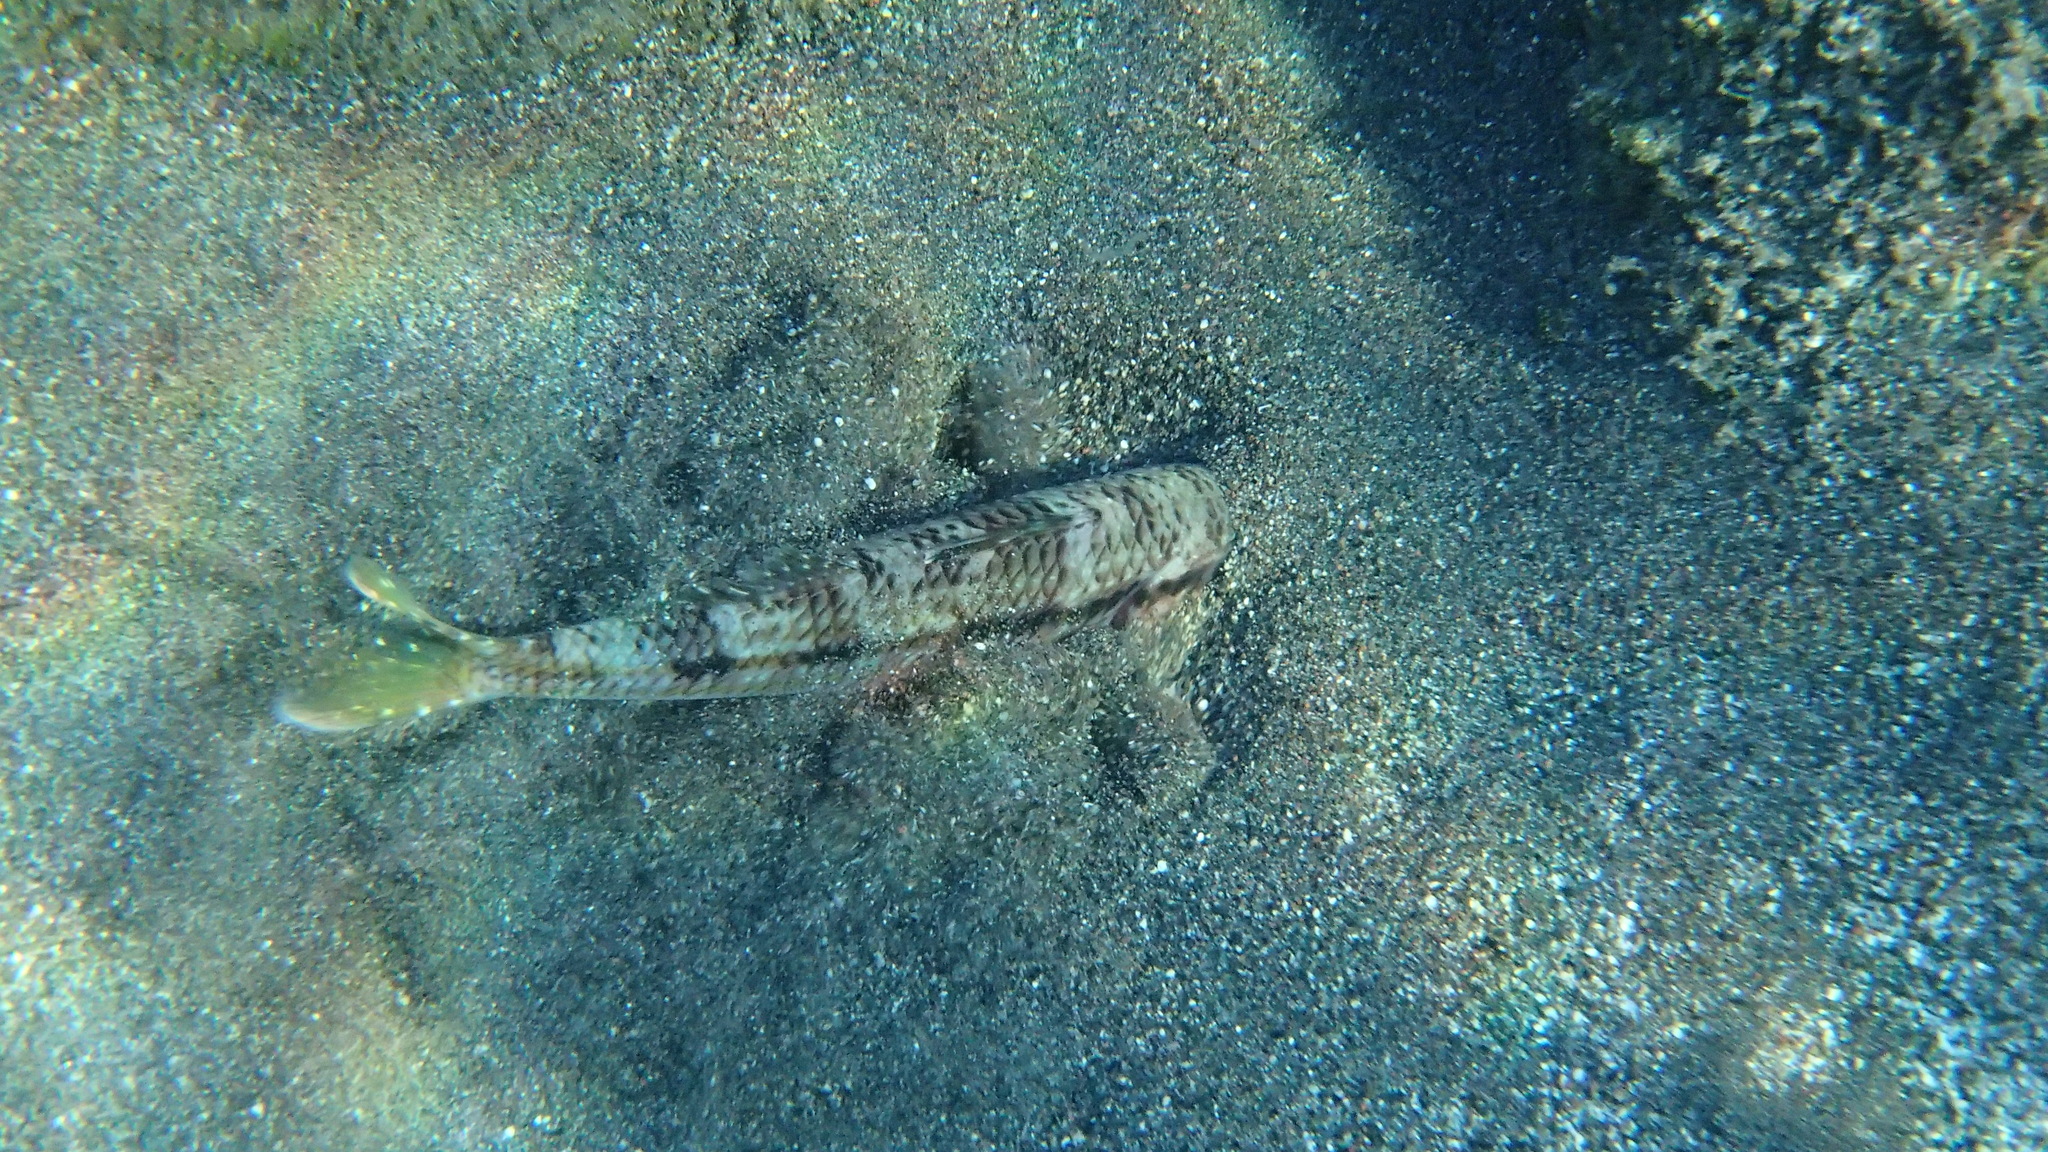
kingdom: Animalia
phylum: Chordata
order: Perciformes
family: Mullidae
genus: Mullus
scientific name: Mullus surmuletus
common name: Red mullet
